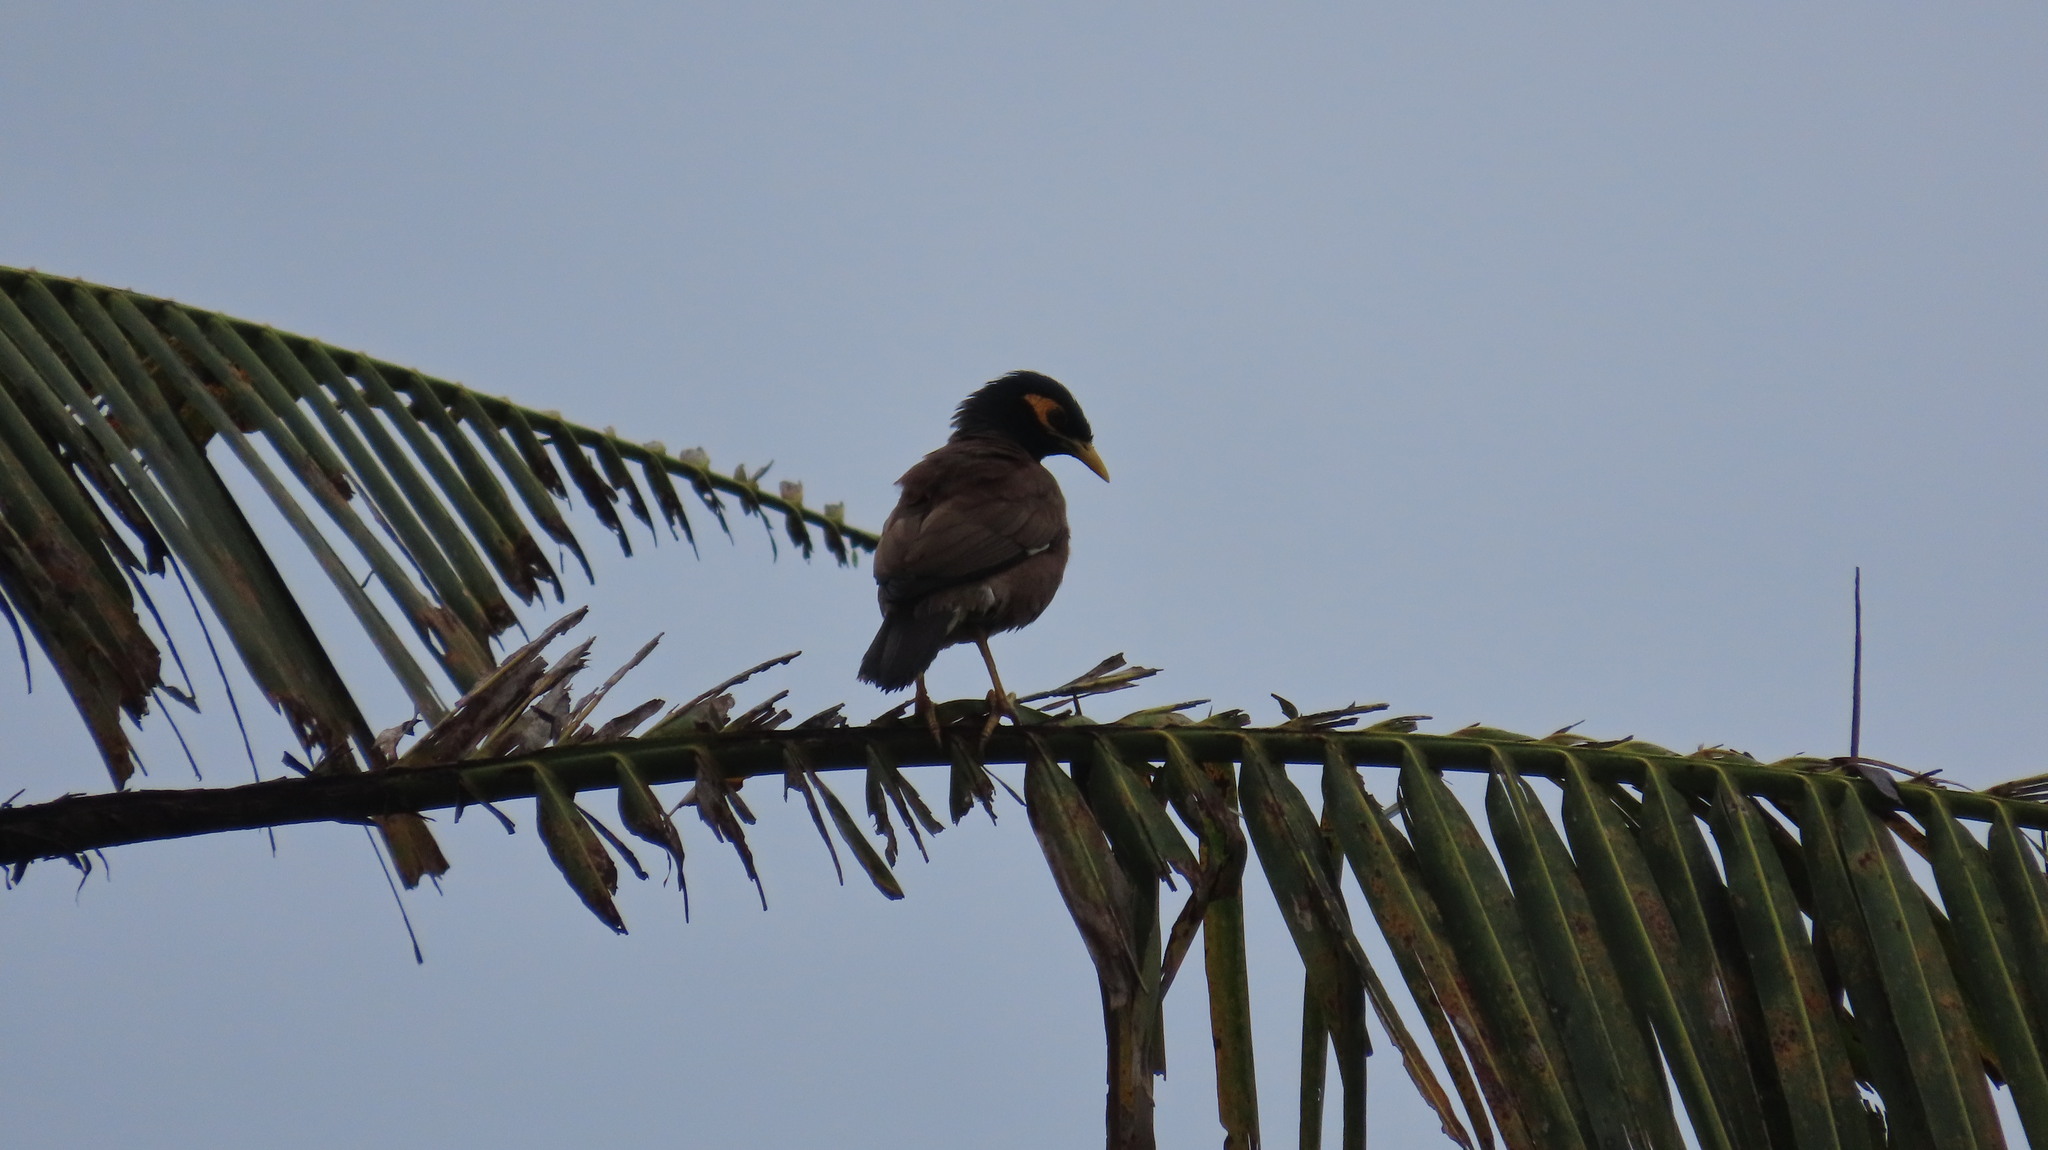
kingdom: Animalia
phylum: Chordata
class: Aves
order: Passeriformes
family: Sturnidae
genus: Acridotheres
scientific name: Acridotheres tristis
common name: Common myna
